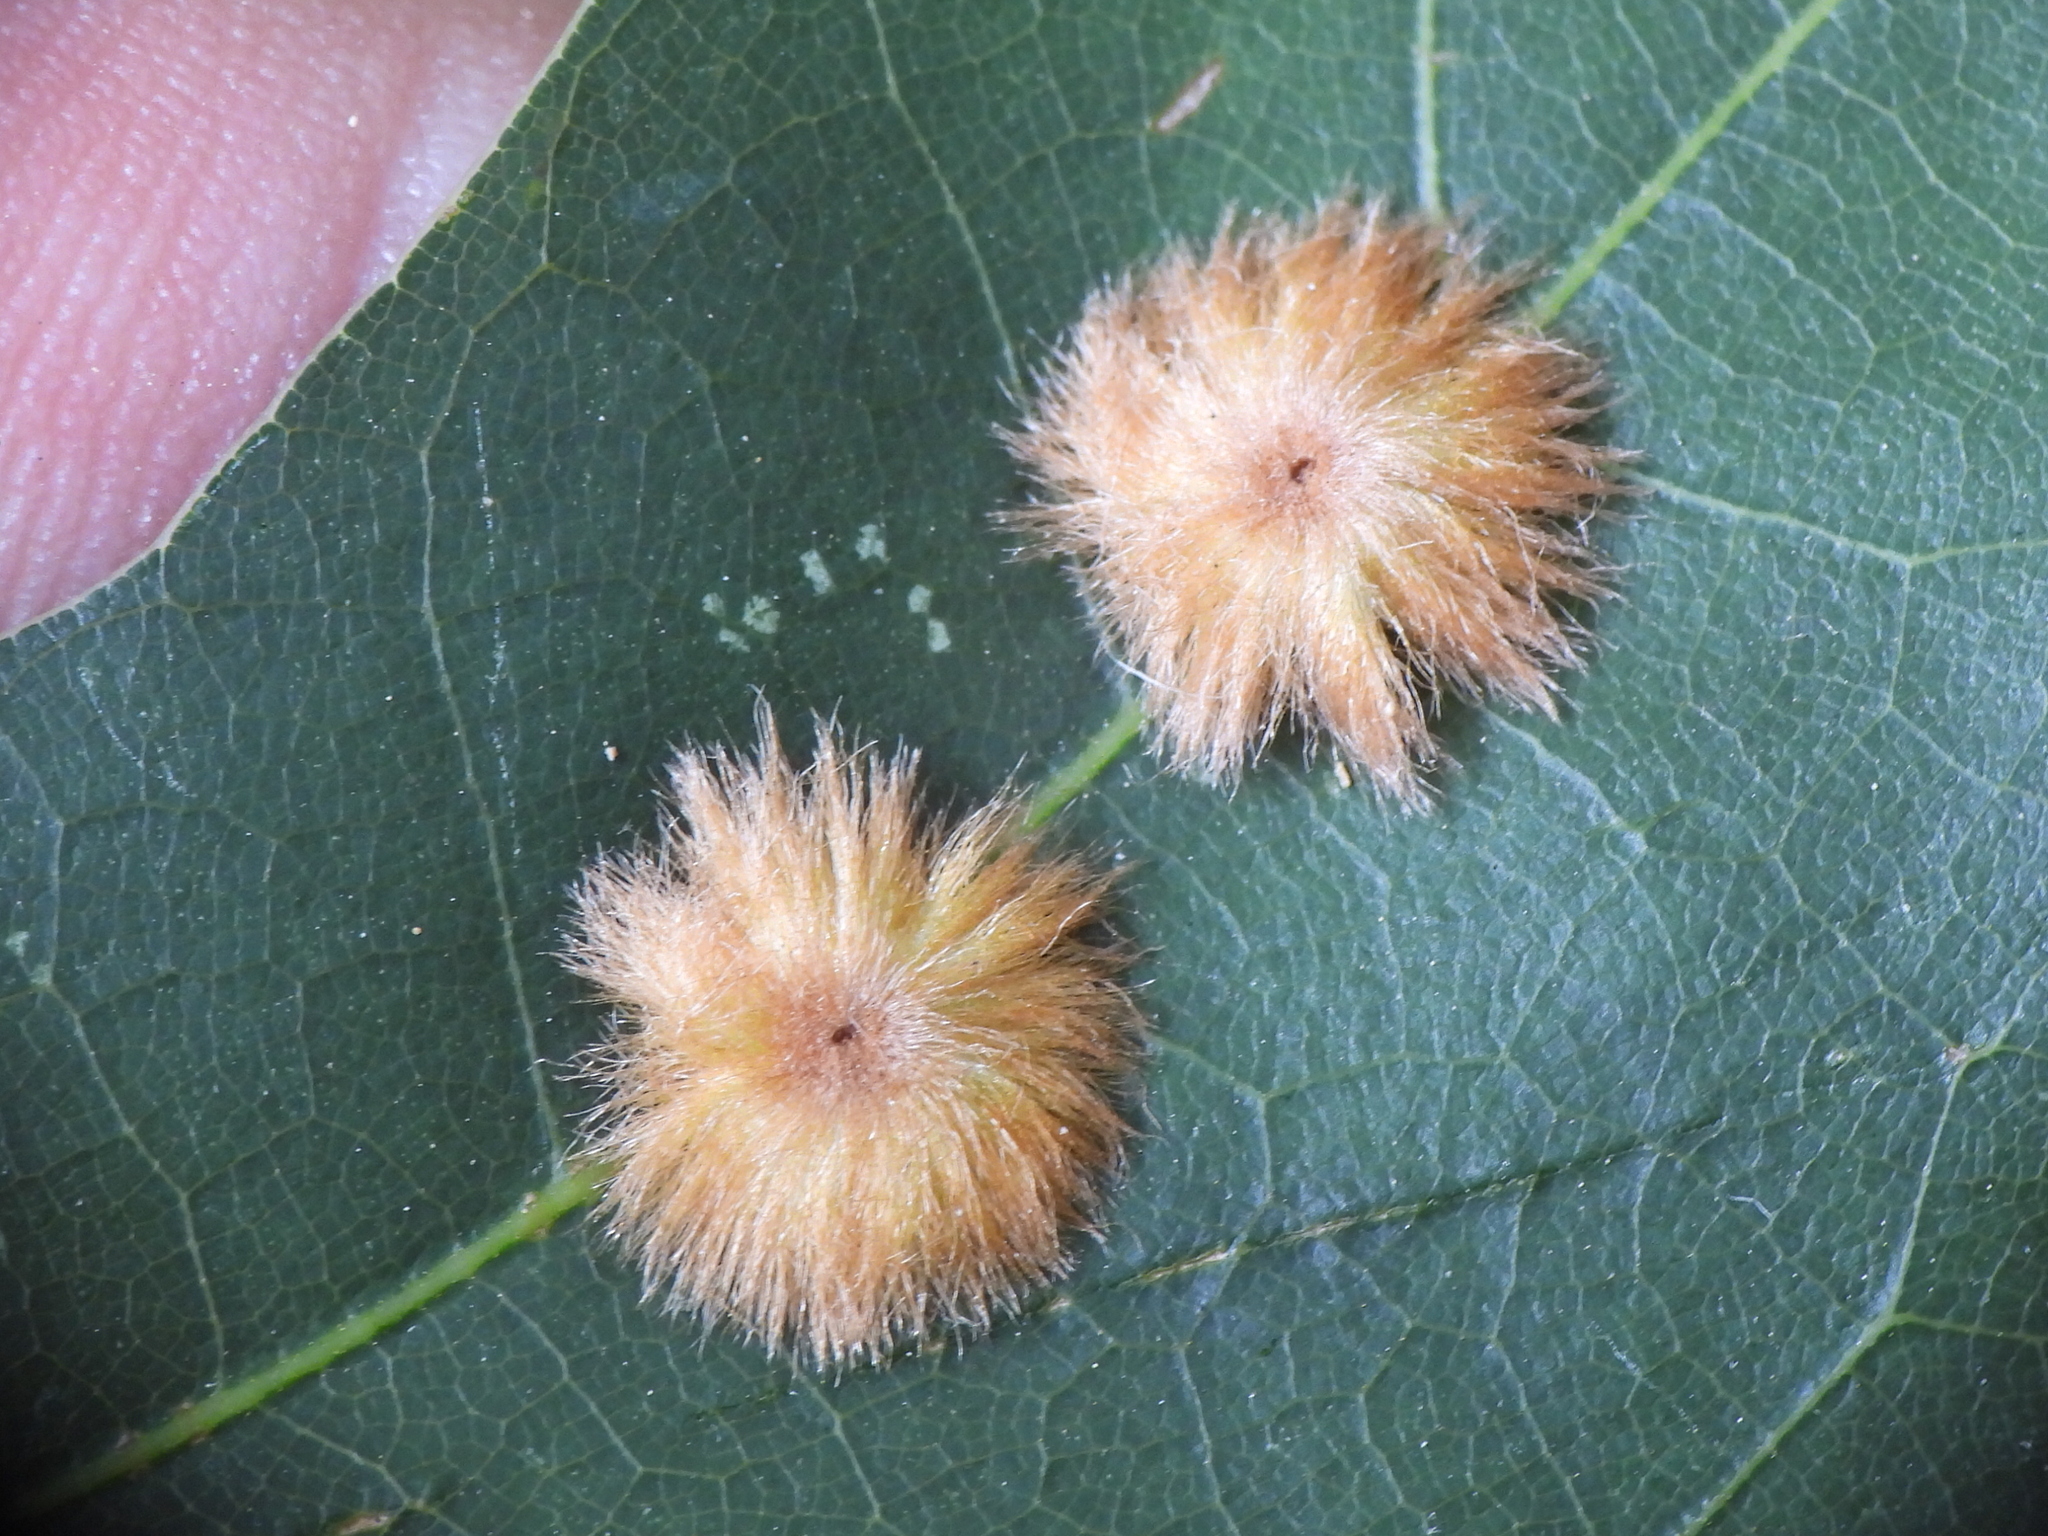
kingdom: Animalia
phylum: Arthropoda
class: Insecta
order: Hymenoptera
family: Cynipidae
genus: Callirhytis
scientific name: Callirhytis
